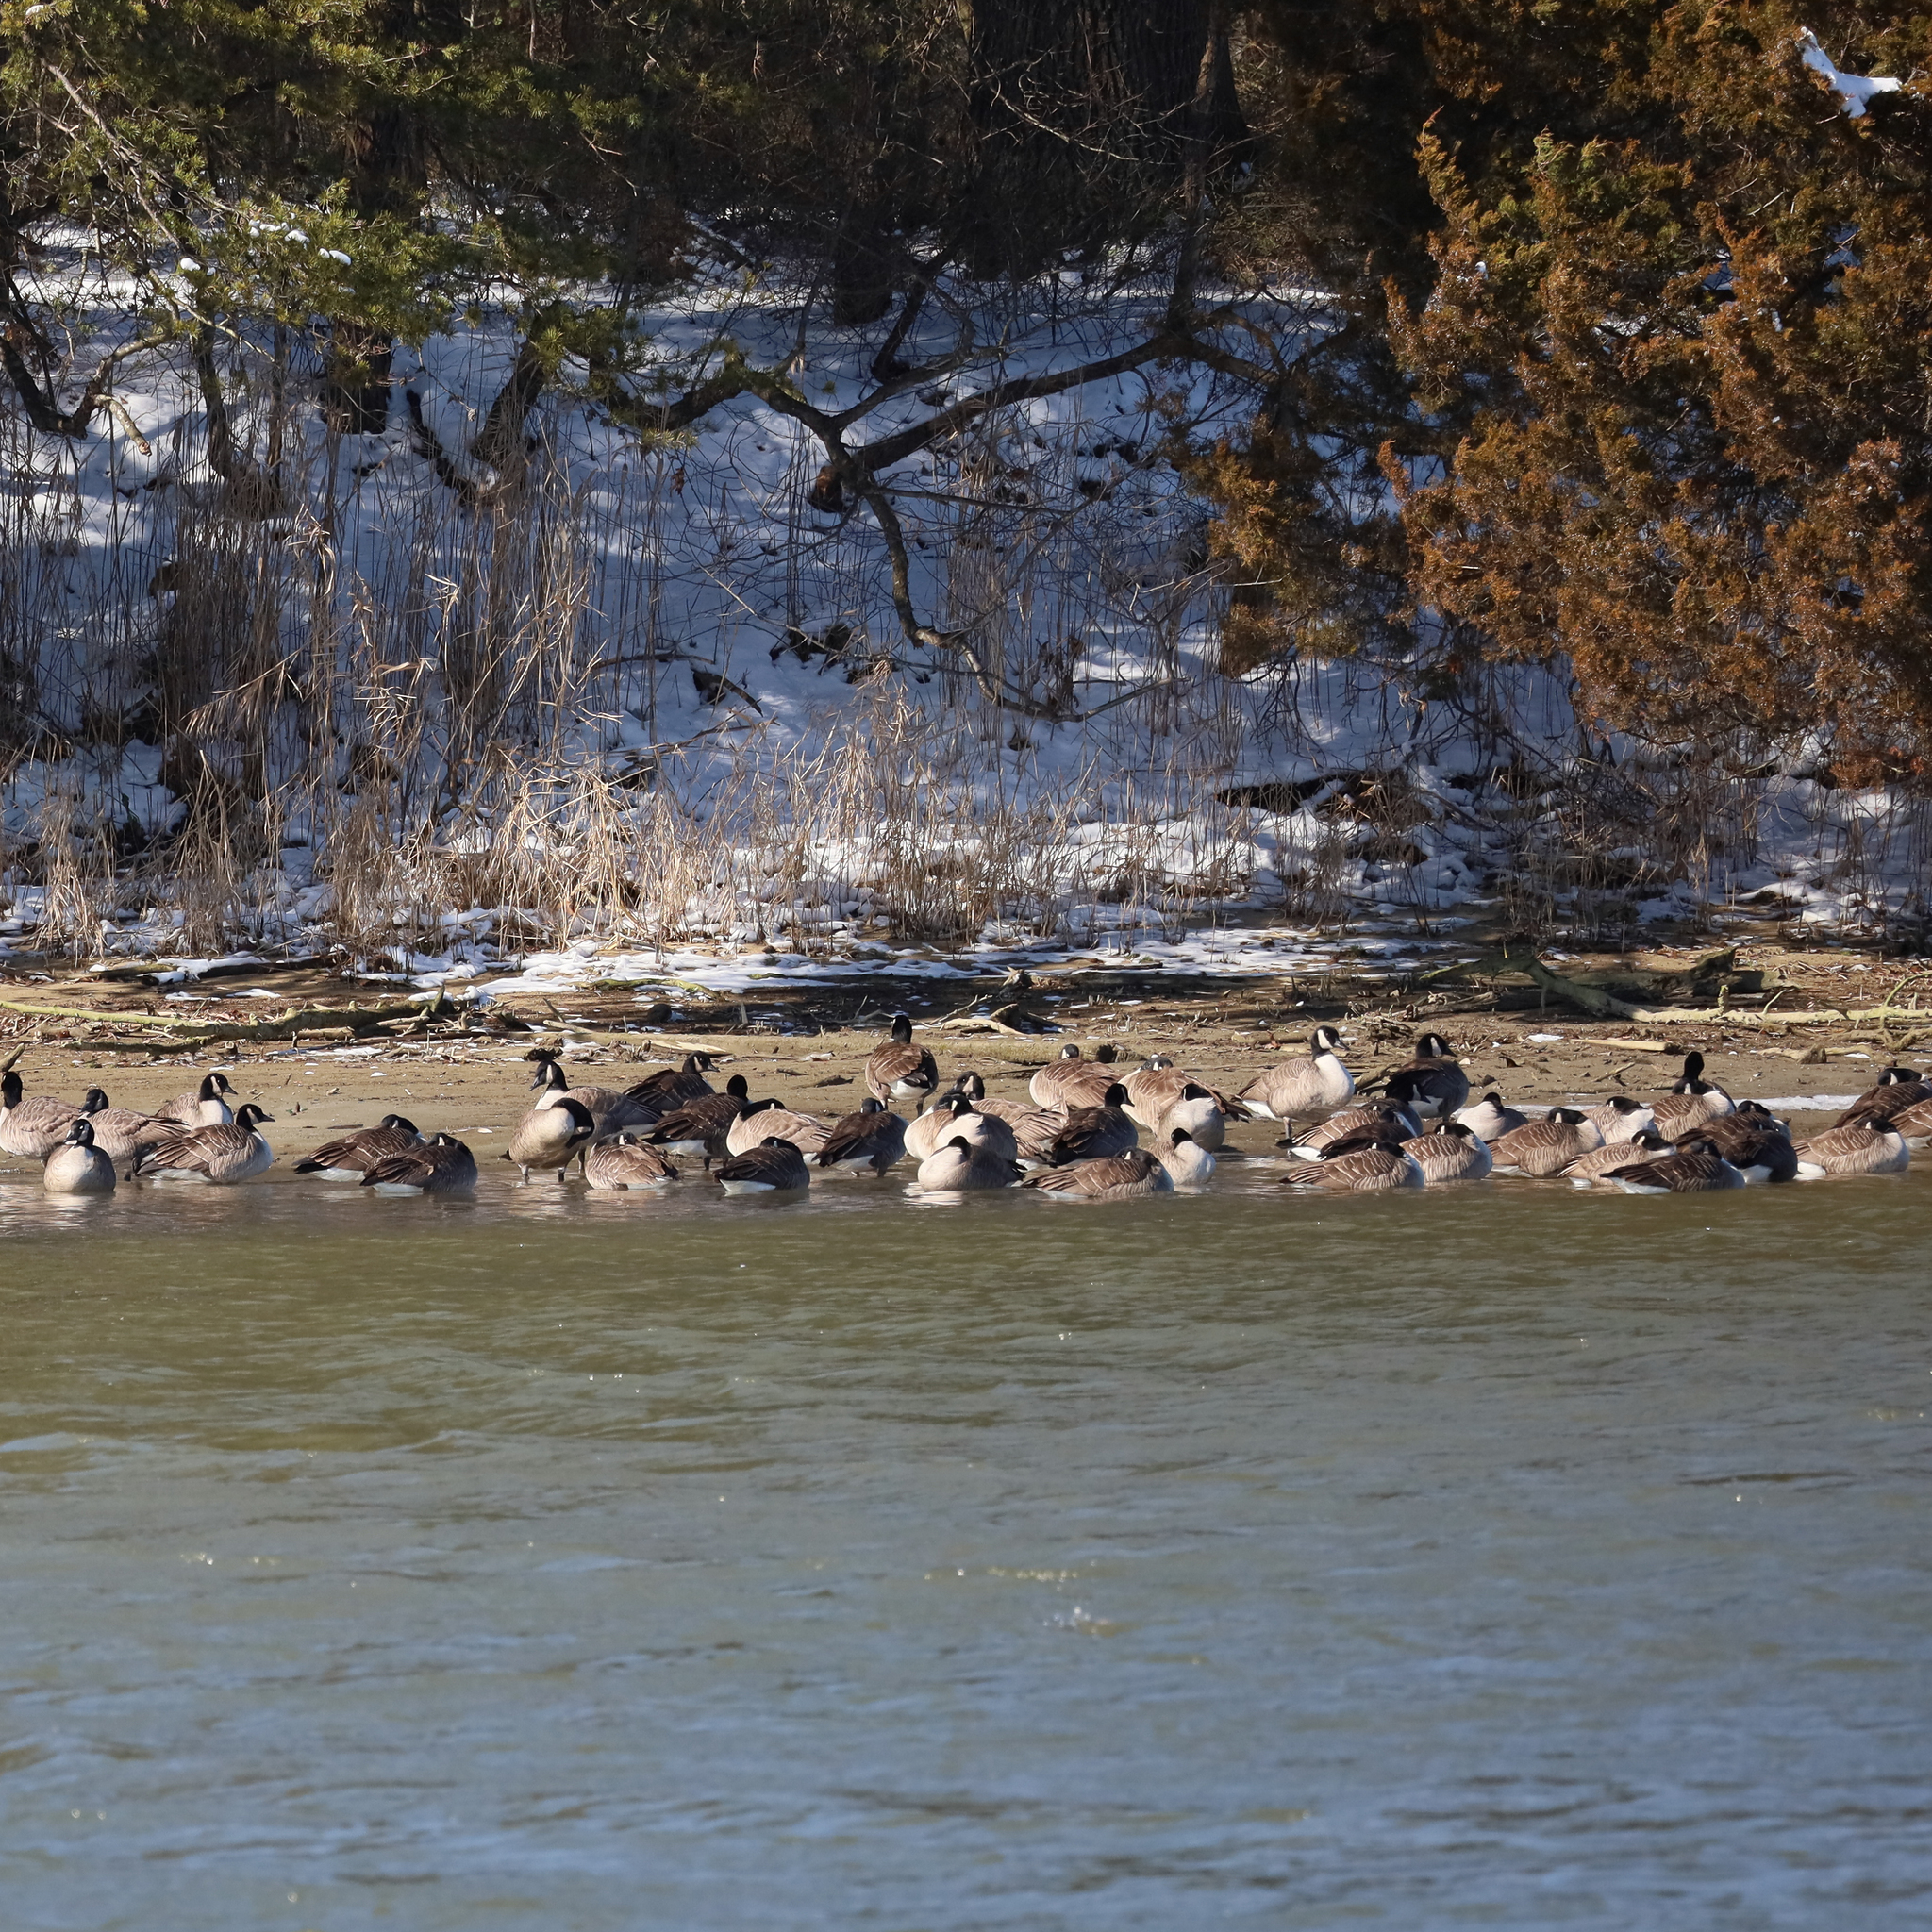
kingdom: Animalia
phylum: Chordata
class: Aves
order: Anseriformes
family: Anatidae
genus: Branta
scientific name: Branta canadensis
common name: Canada goose
